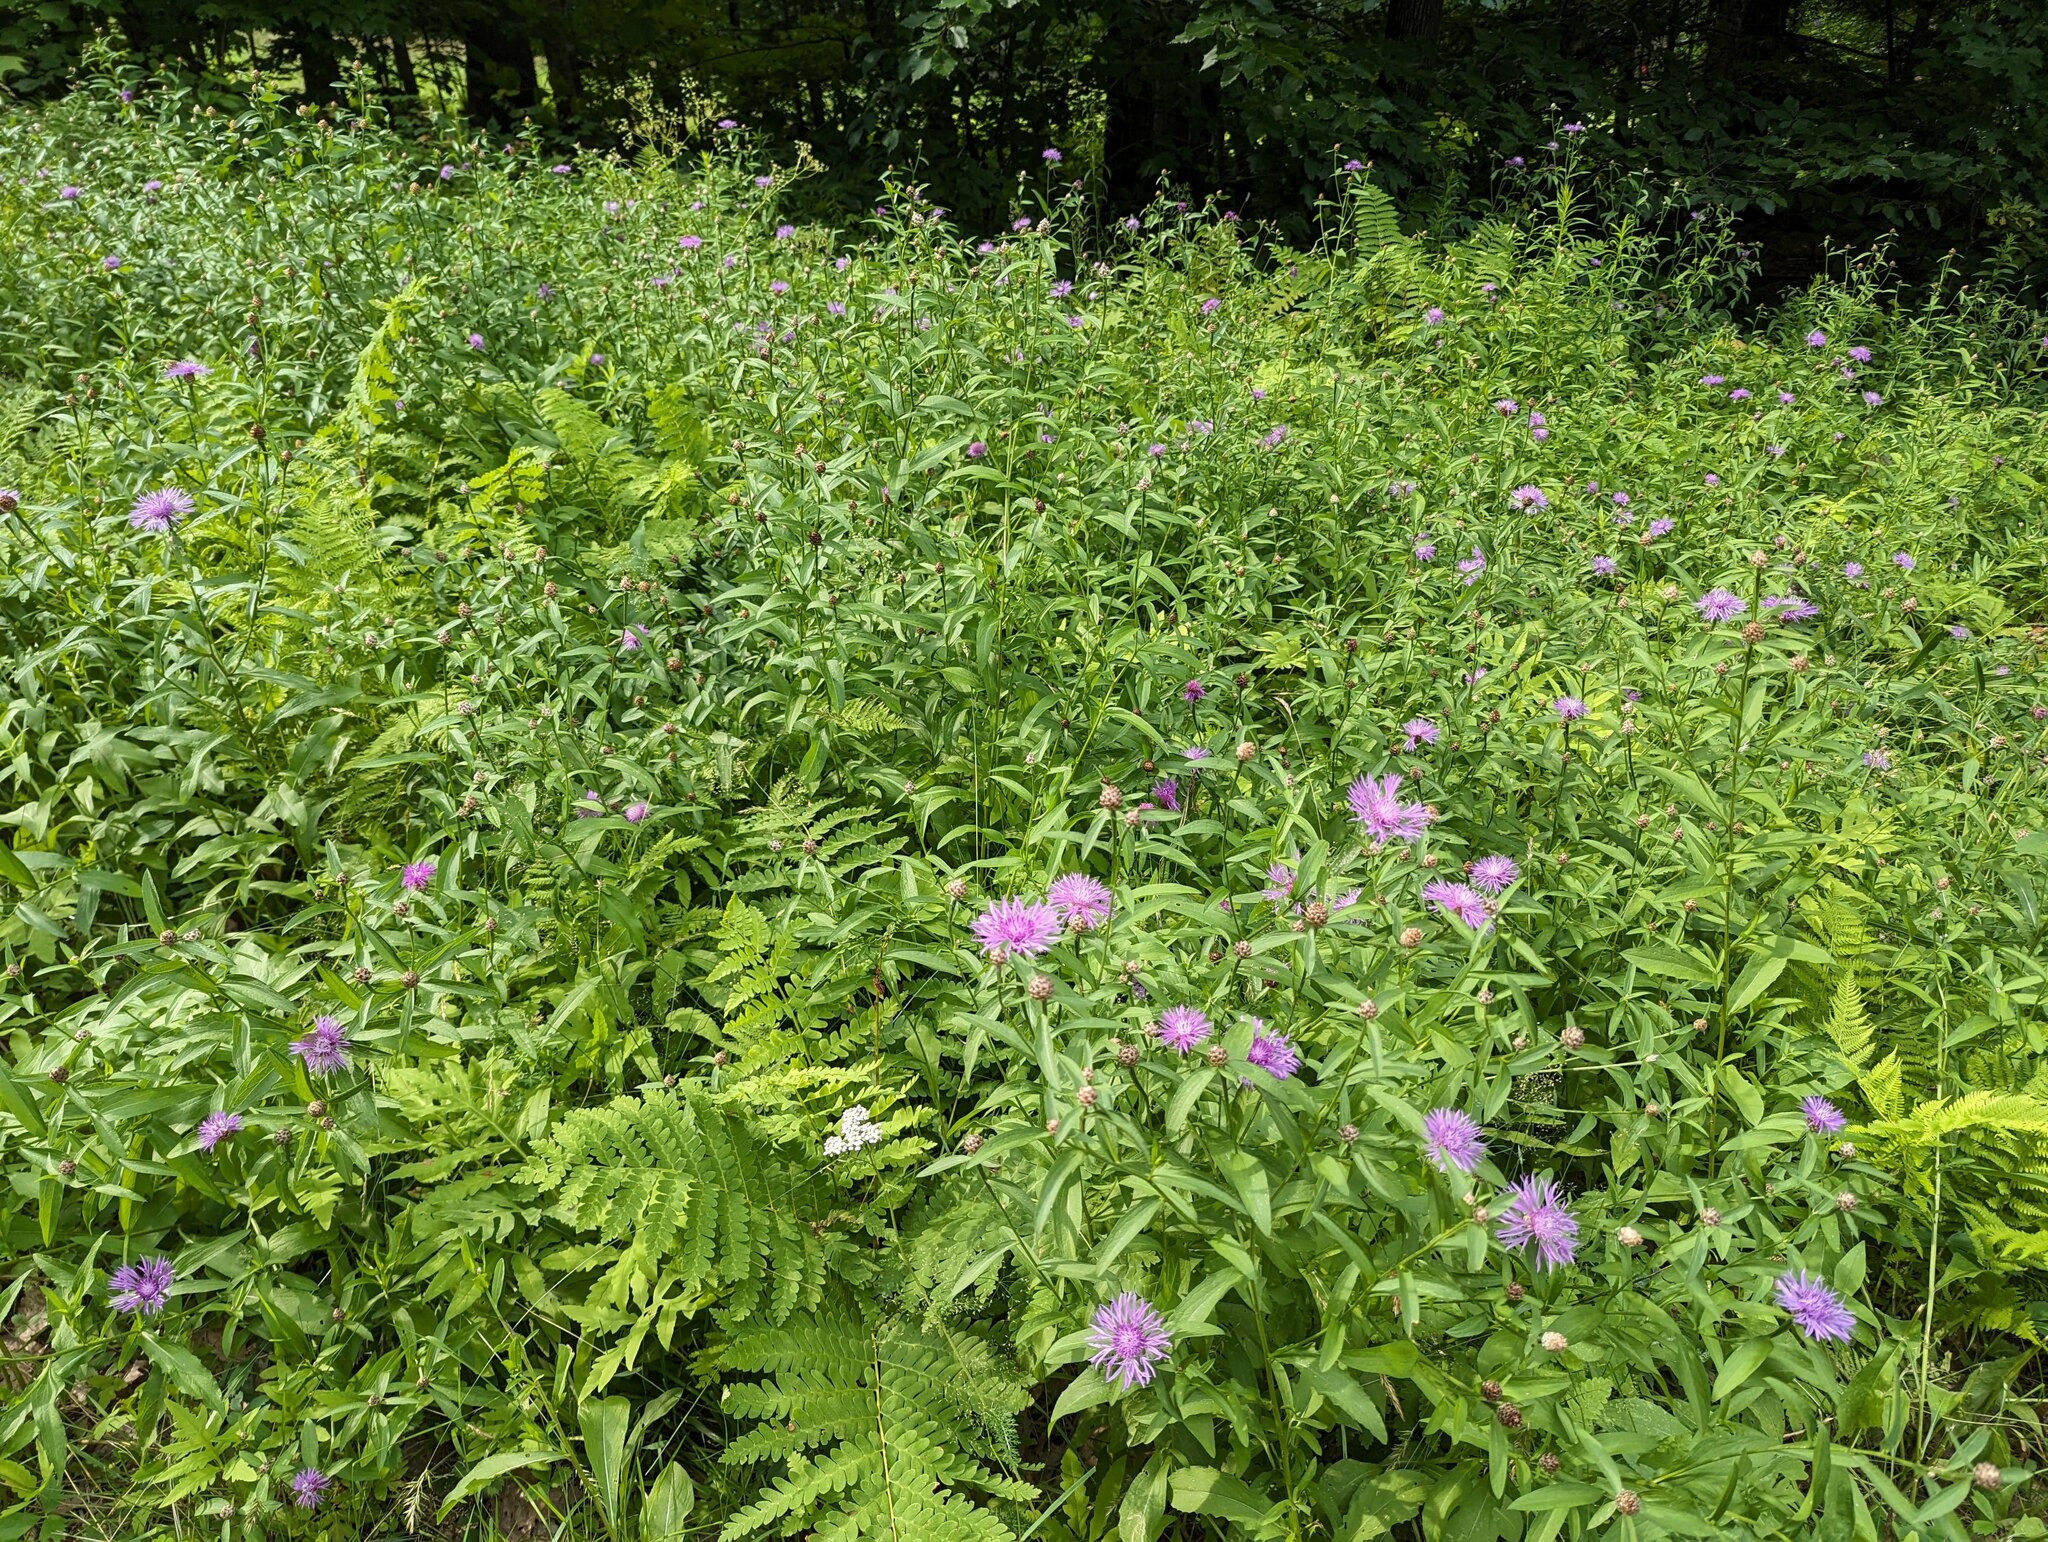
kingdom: Plantae
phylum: Tracheophyta
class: Polypodiopsida
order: Osmundales
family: Osmundaceae
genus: Claytosmunda
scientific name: Claytosmunda claytoniana
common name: Clayton's fern
